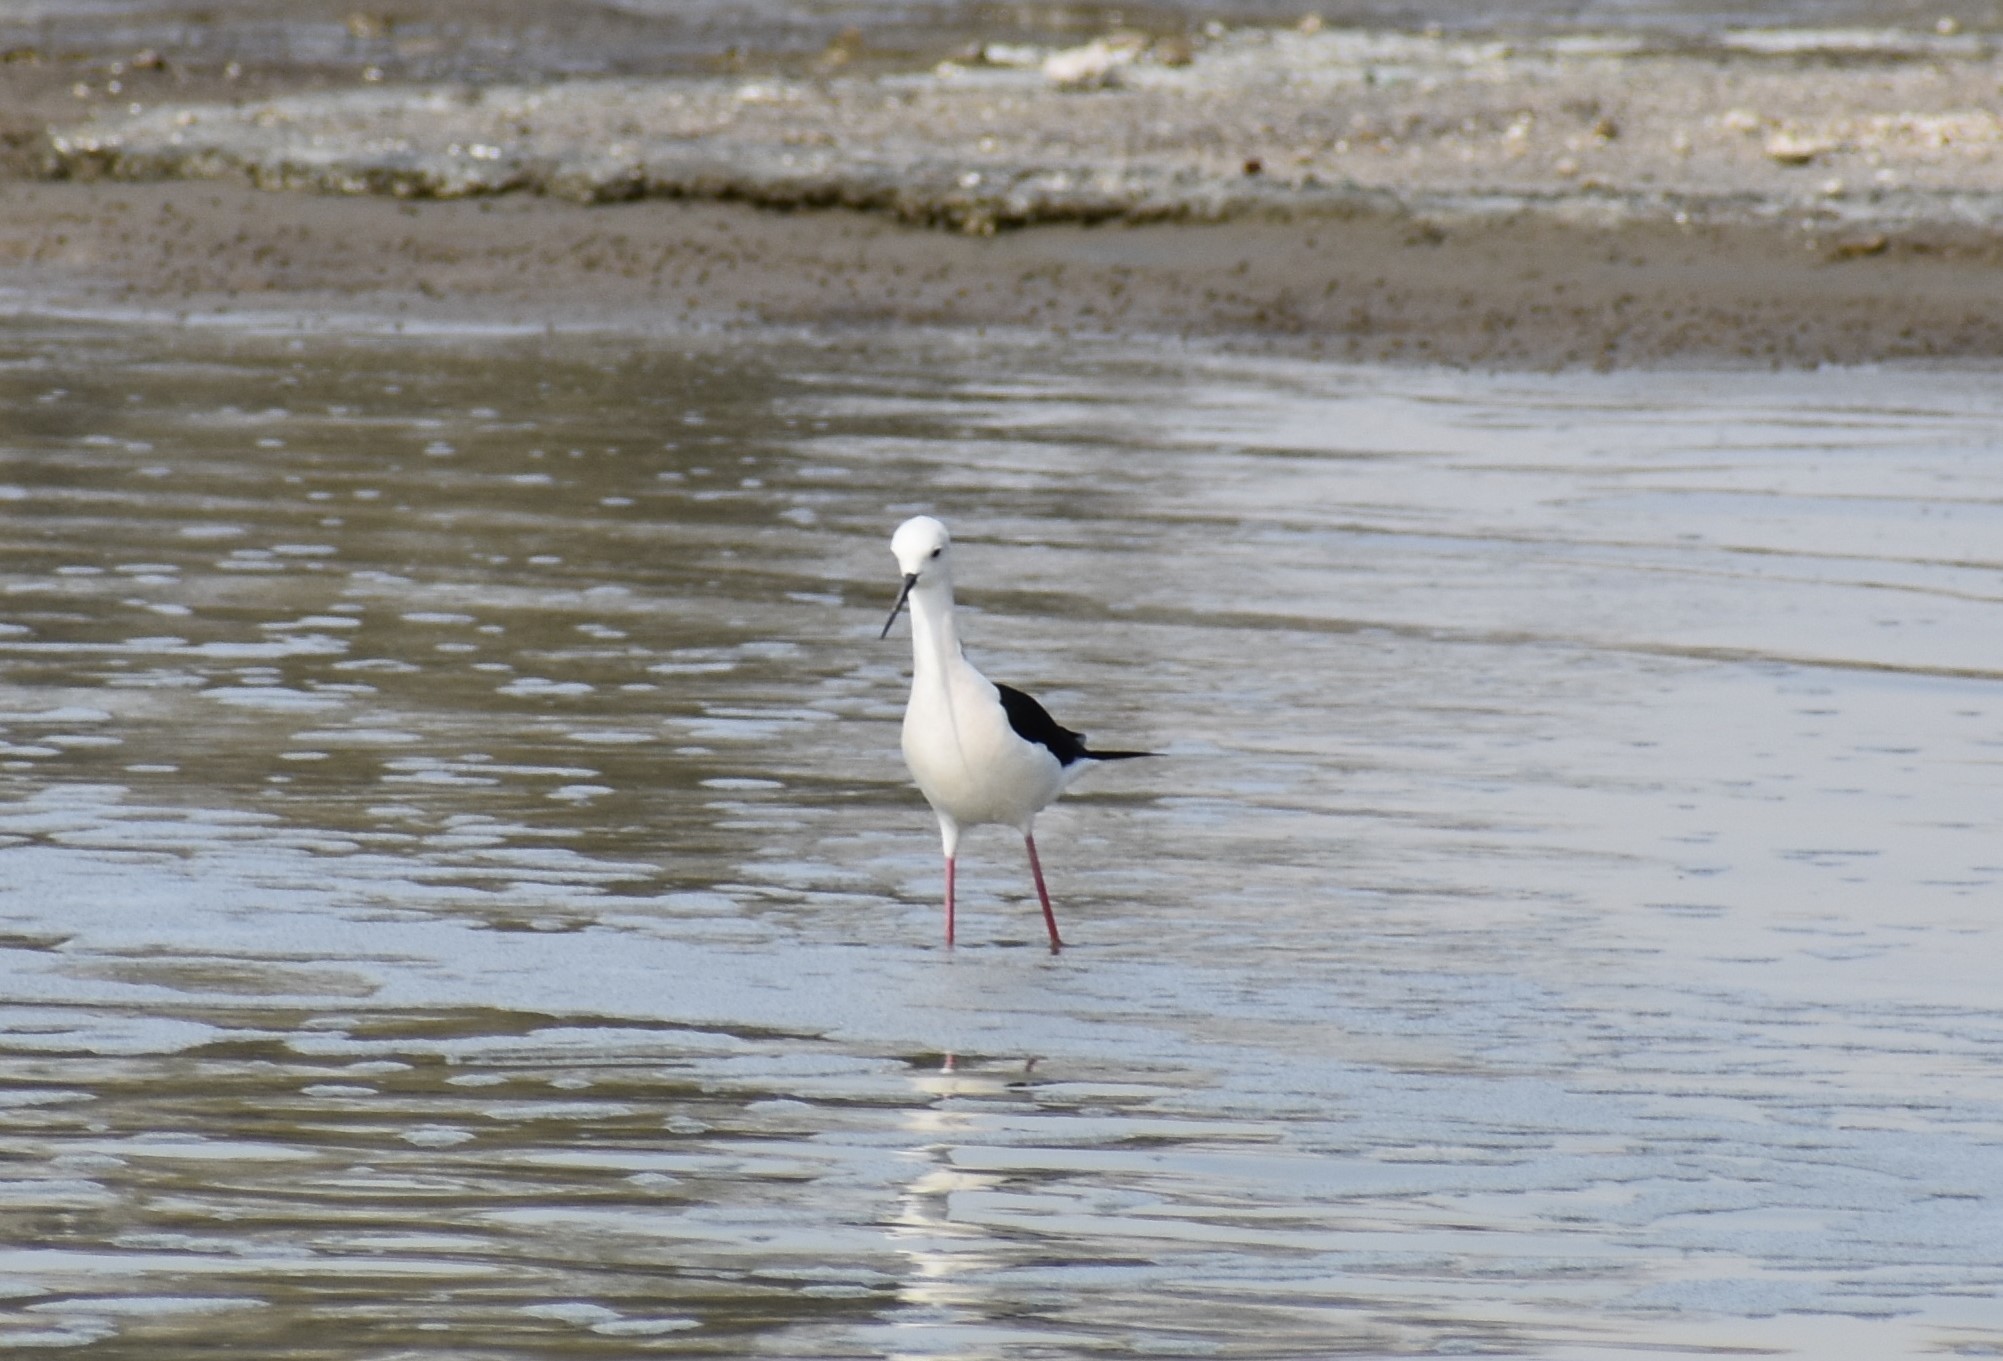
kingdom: Animalia
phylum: Chordata
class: Aves
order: Charadriiformes
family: Recurvirostridae
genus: Himantopus
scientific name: Himantopus himantopus
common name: Black-winged stilt
